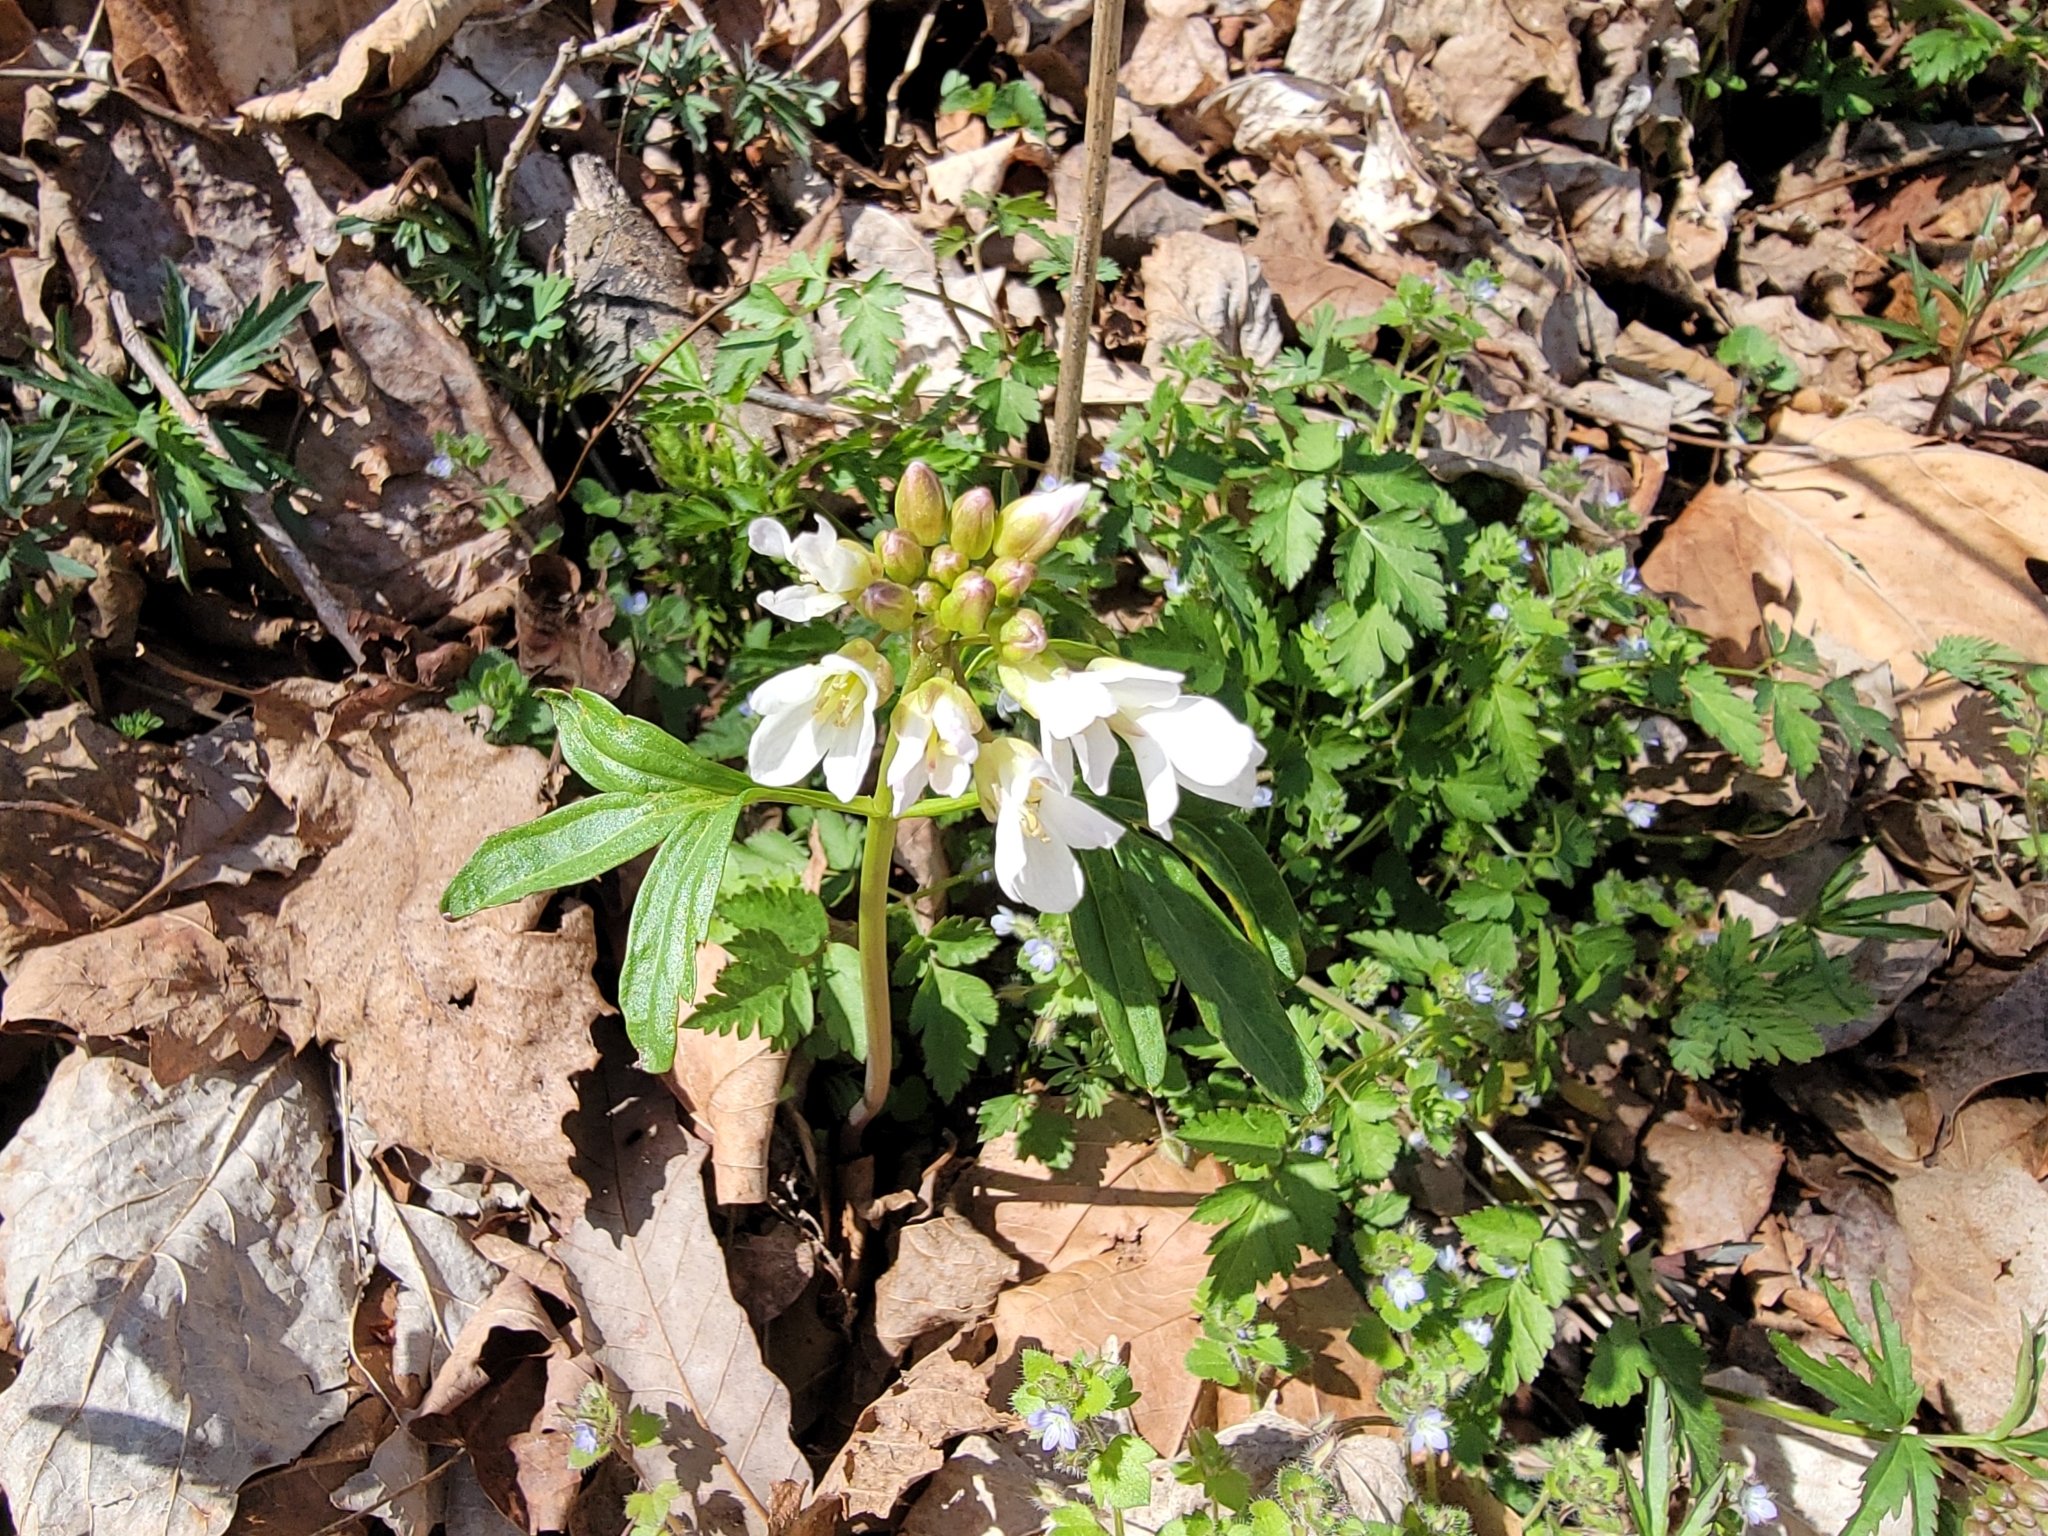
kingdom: Plantae
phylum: Tracheophyta
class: Magnoliopsida
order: Brassicales
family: Brassicaceae
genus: Cardamine
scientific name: Cardamine concatenata
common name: Cut-leaf toothcup
